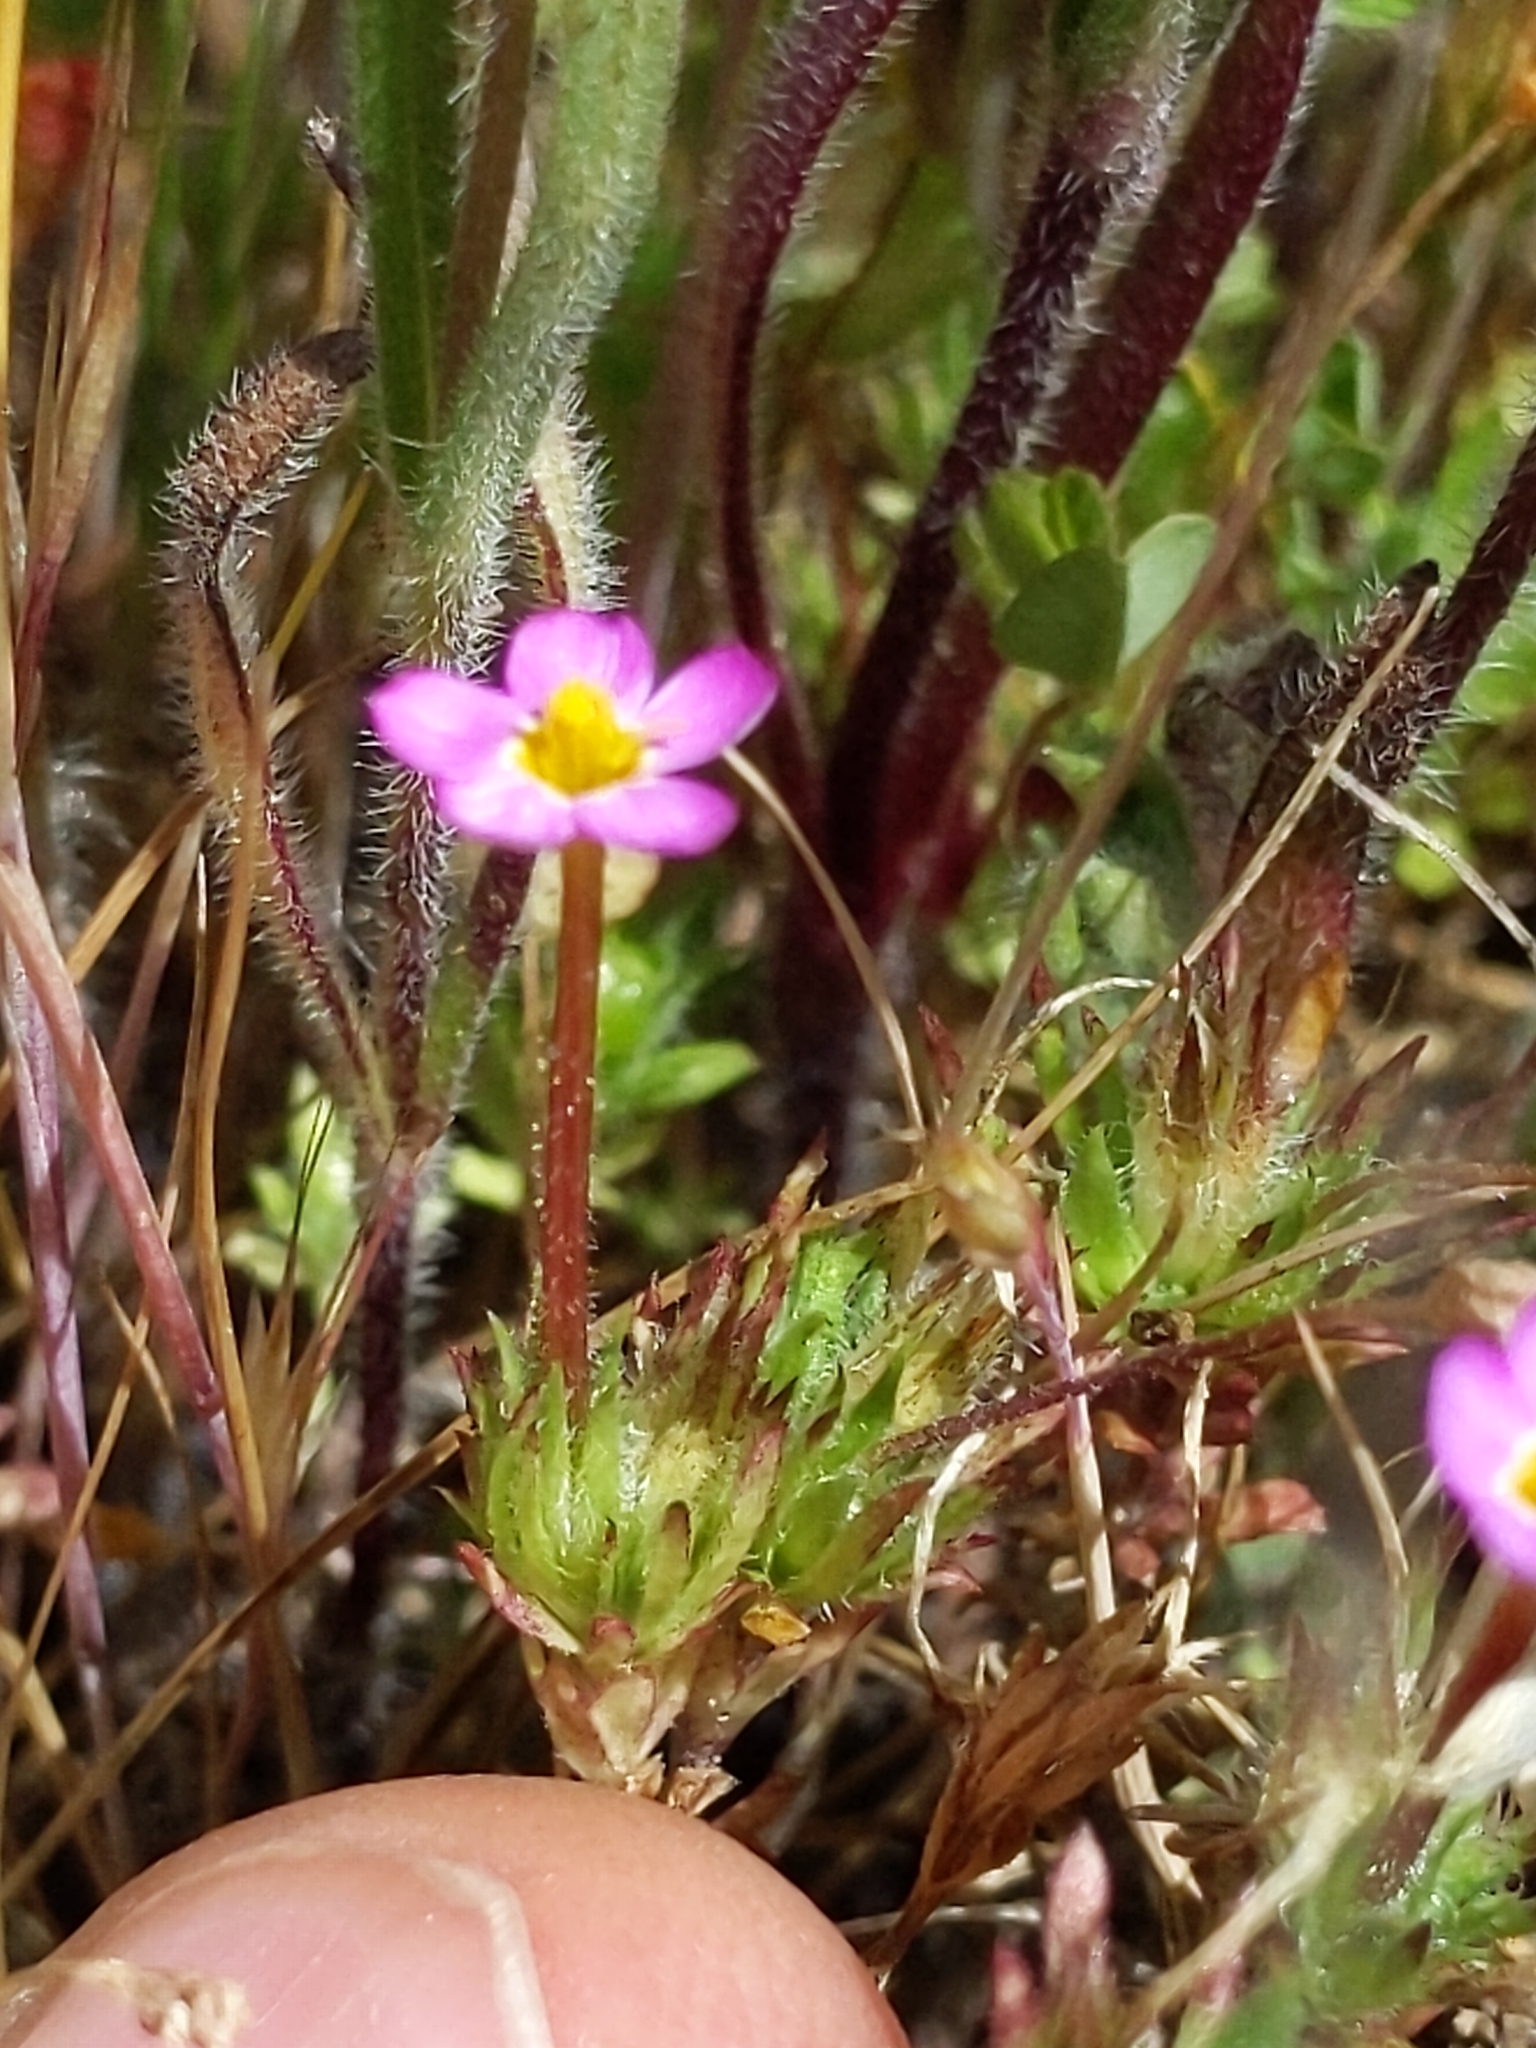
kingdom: Plantae
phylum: Tracheophyta
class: Magnoliopsida
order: Ericales
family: Polemoniaceae
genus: Leptosiphon
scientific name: Leptosiphon bicolor
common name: True babystars
